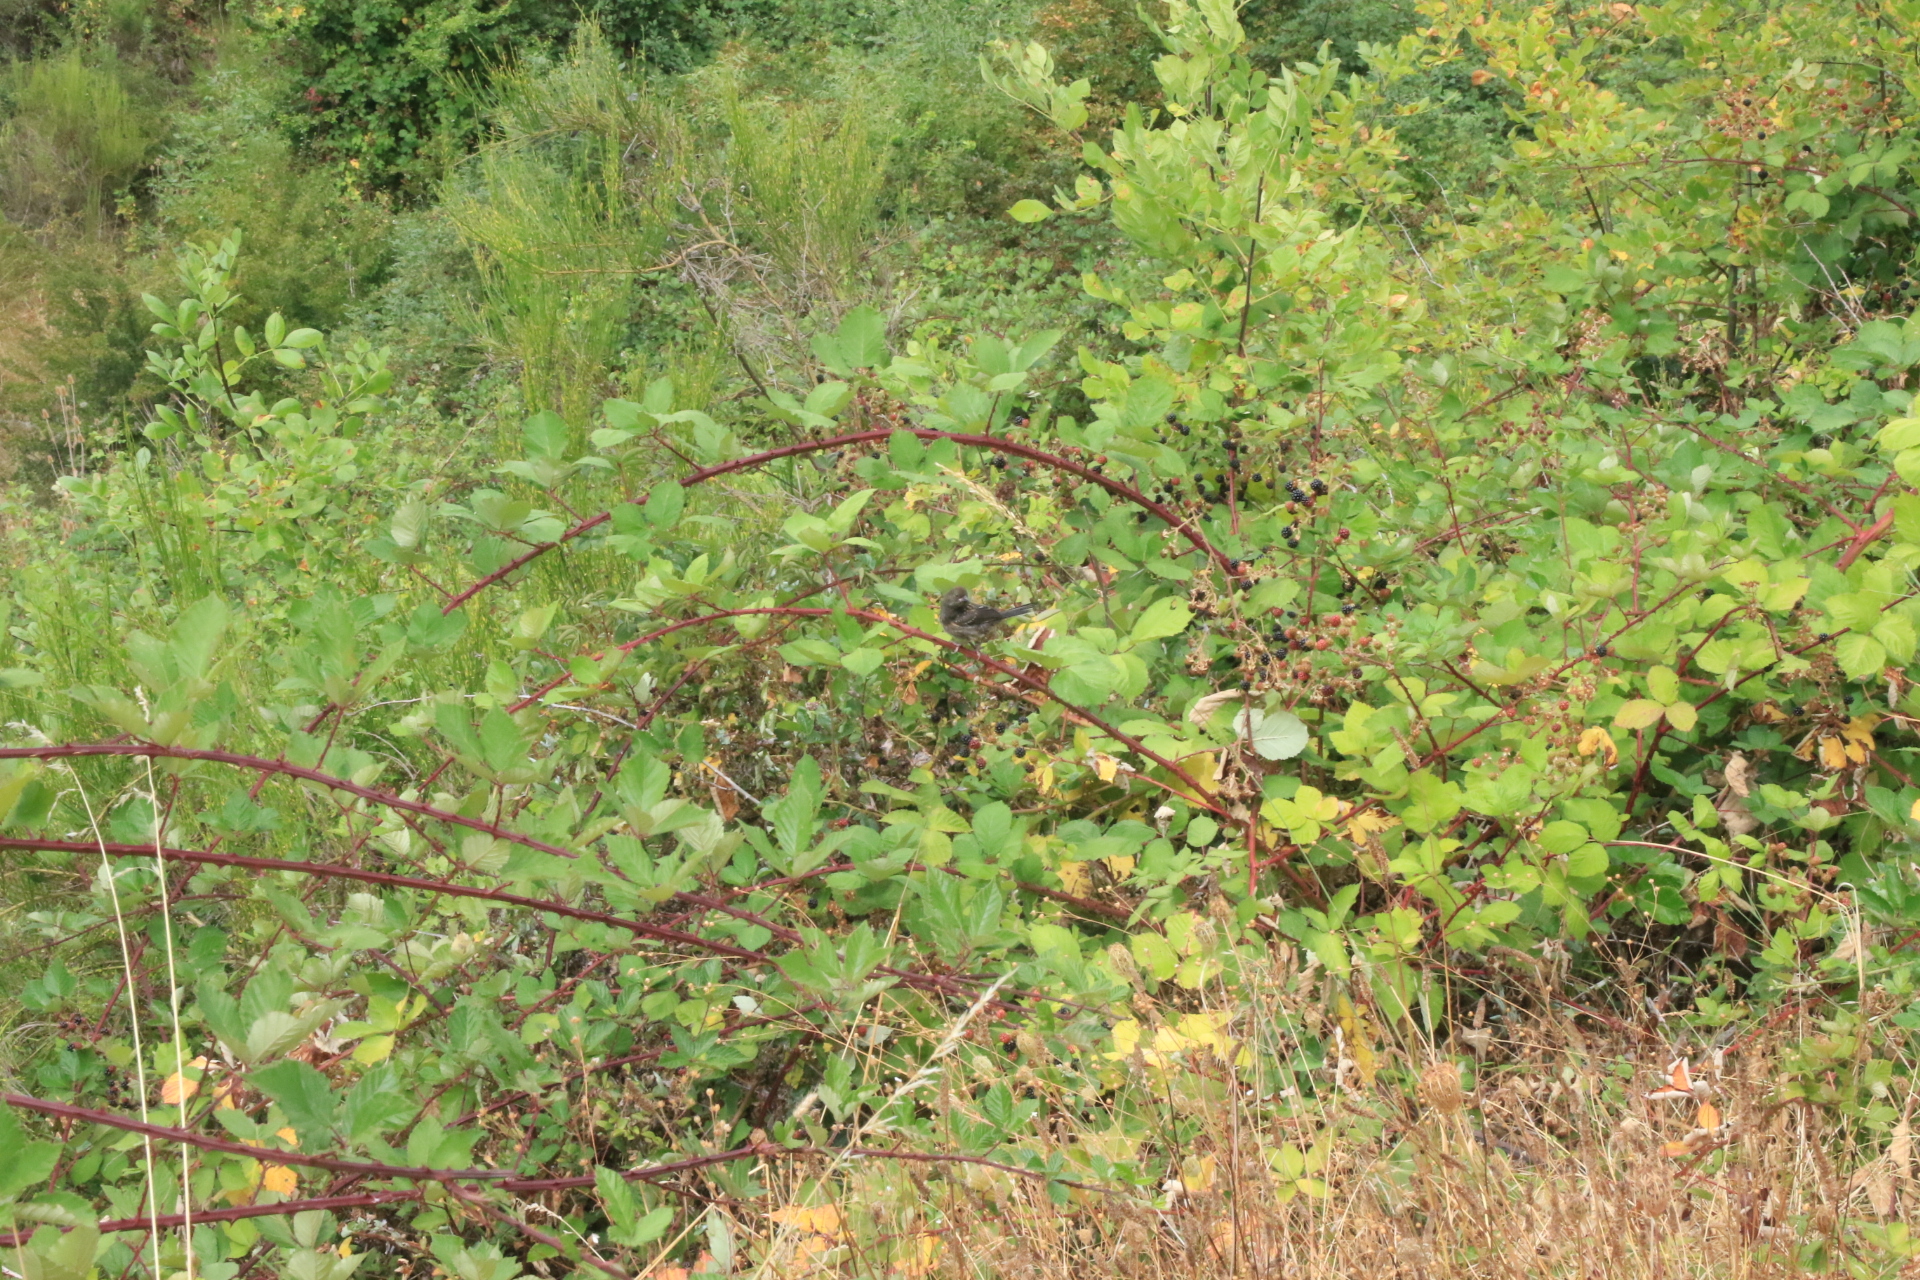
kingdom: Animalia
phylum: Chordata
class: Aves
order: Passeriformes
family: Passerellidae
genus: Pipilo
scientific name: Pipilo maculatus
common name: Spotted towhee
